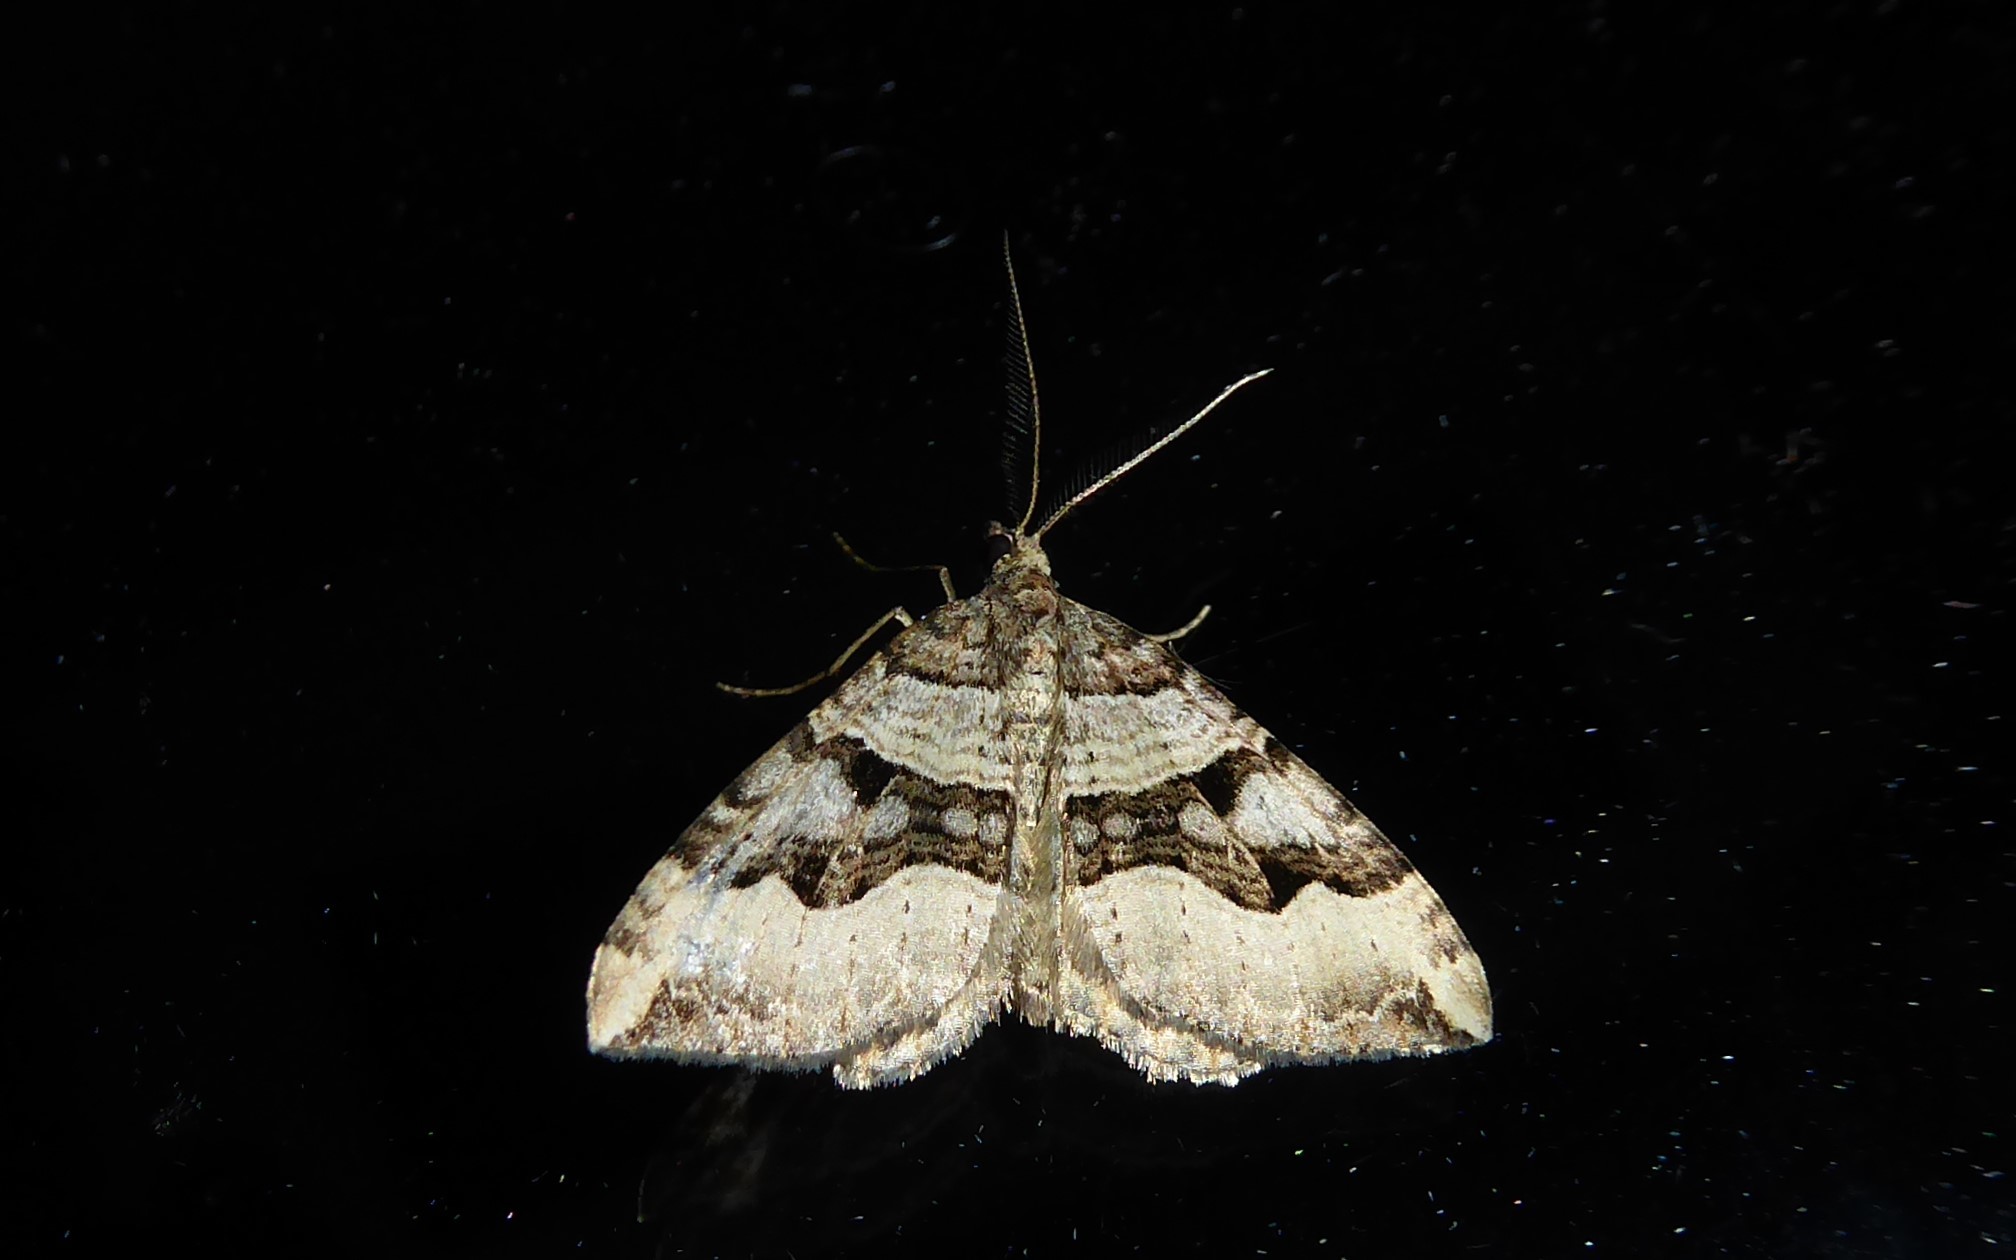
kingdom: Animalia
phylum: Arthropoda
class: Insecta
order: Lepidoptera
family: Geometridae
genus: Xanthorhoe
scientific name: Xanthorhoe semifissata
